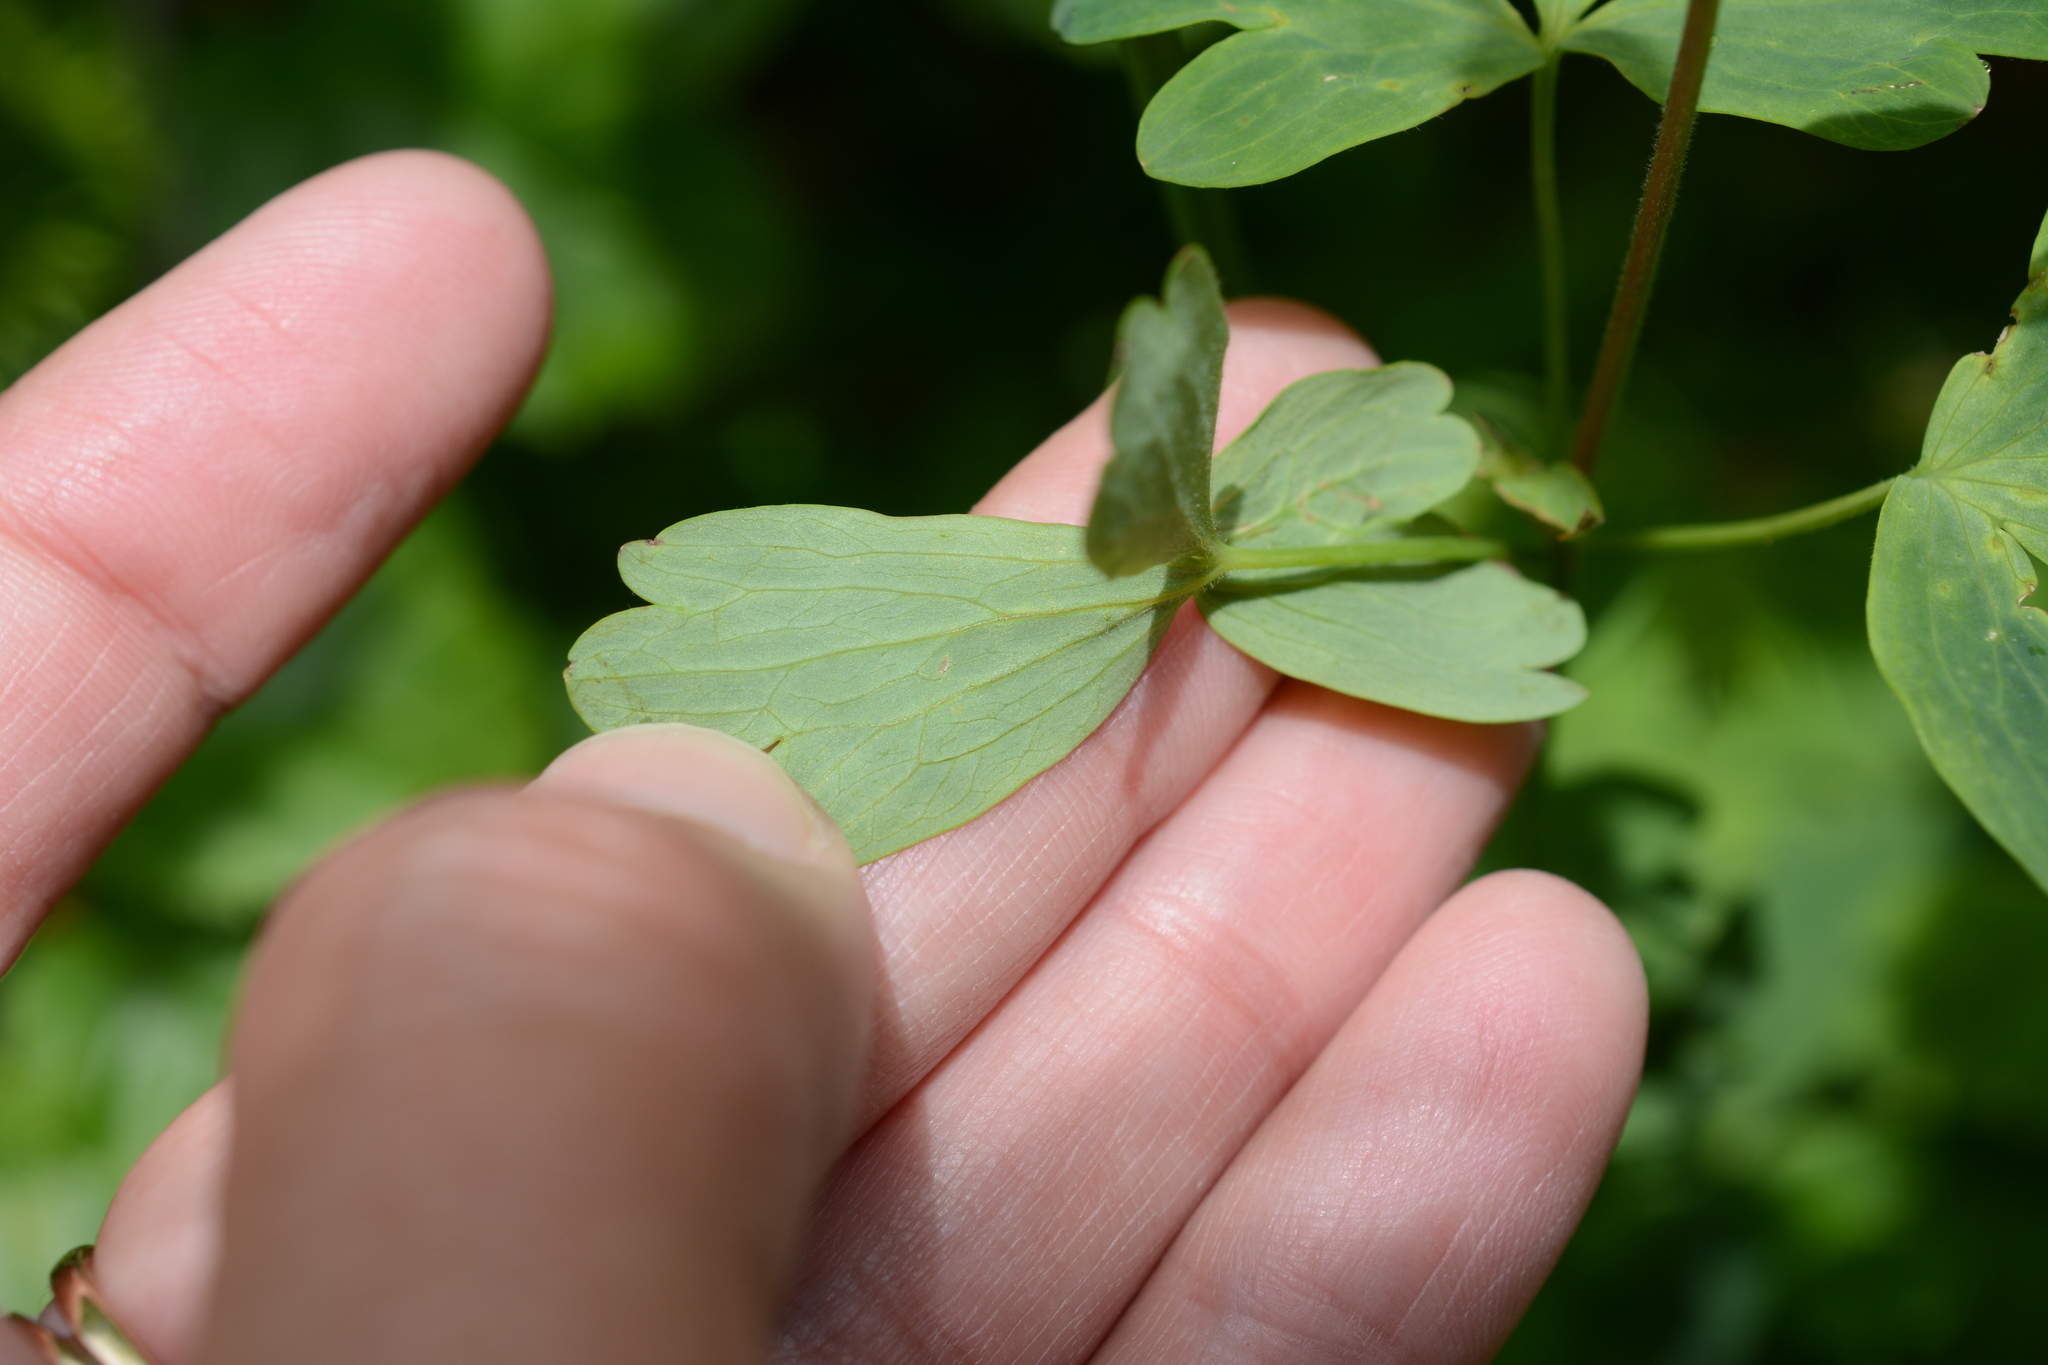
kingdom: Plantae
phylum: Tracheophyta
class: Magnoliopsida
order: Ranunculales
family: Ranunculaceae
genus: Aquilegia
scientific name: Aquilegia flavescens
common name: Yellow columbine
